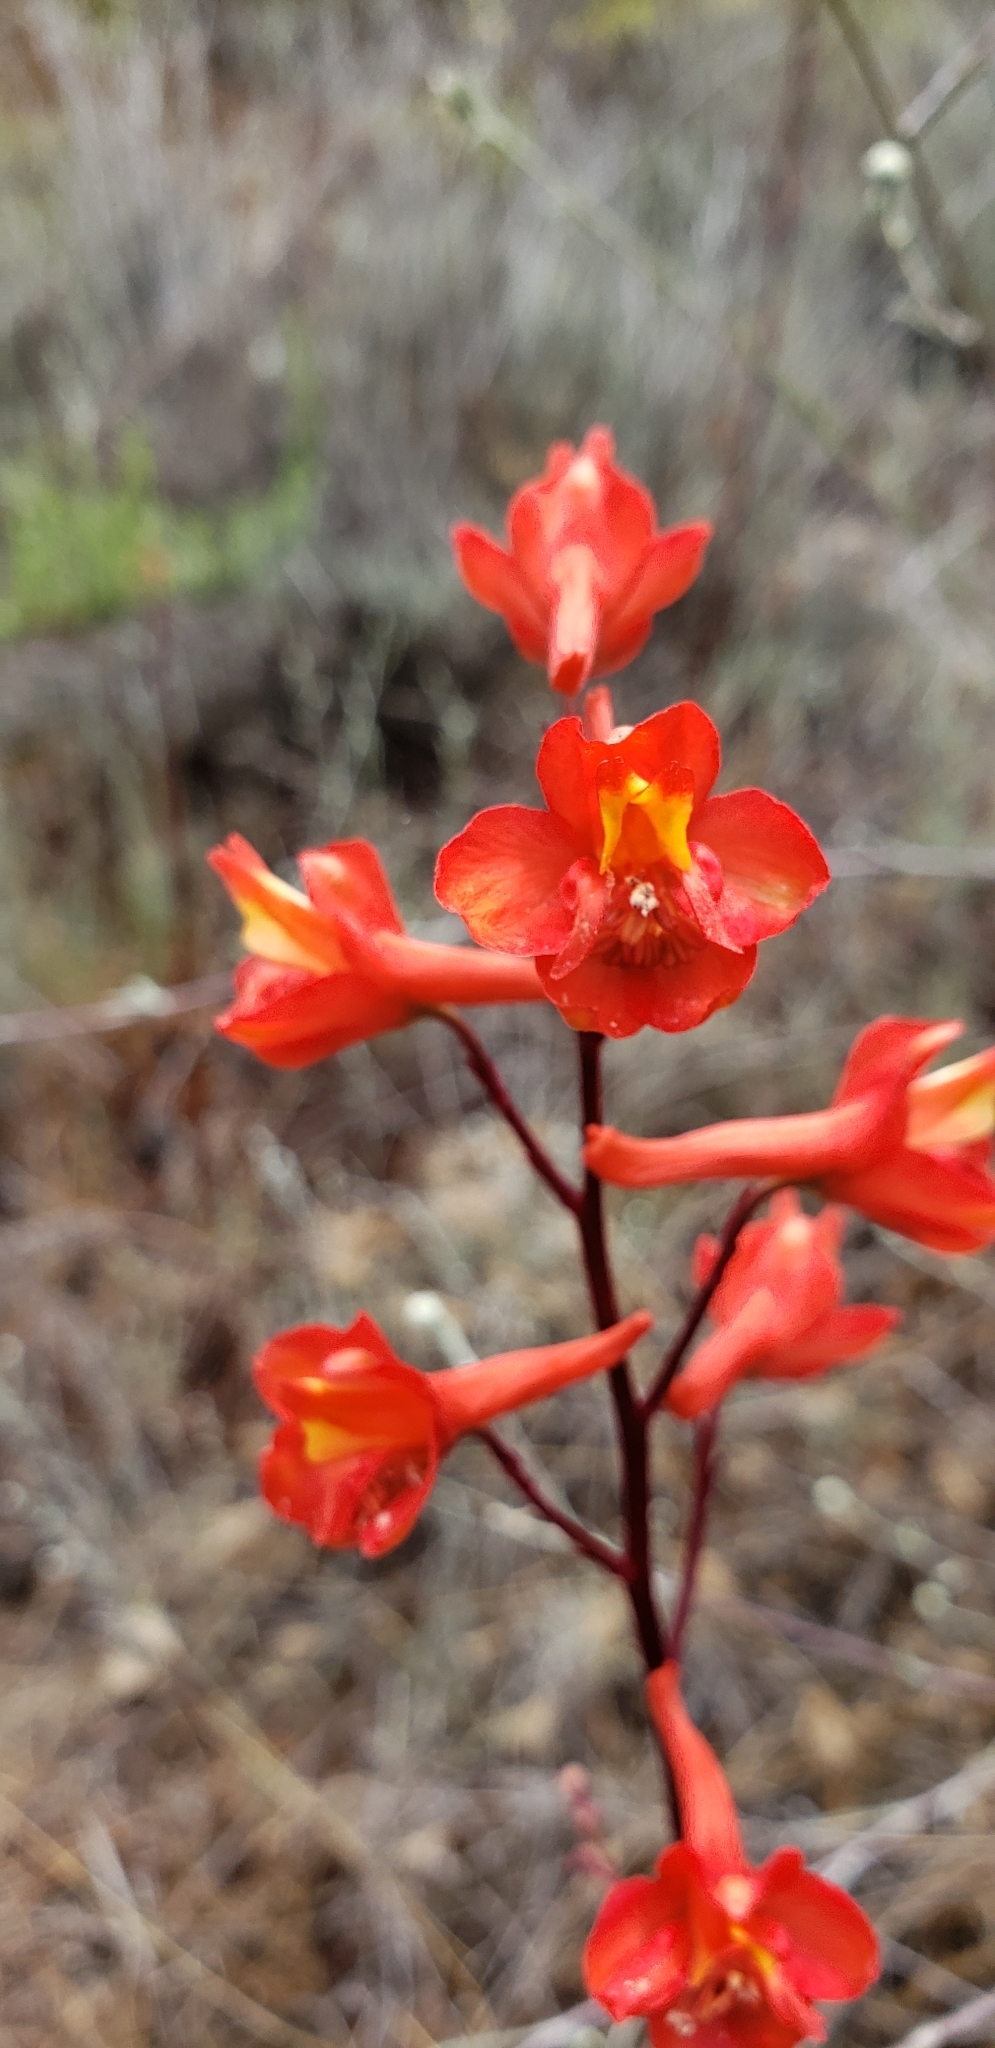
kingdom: Plantae
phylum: Tracheophyta
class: Magnoliopsida
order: Ranunculales
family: Ranunculaceae
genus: Delphinium
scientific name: Delphinium cardinale
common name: Scarlet larkspur
